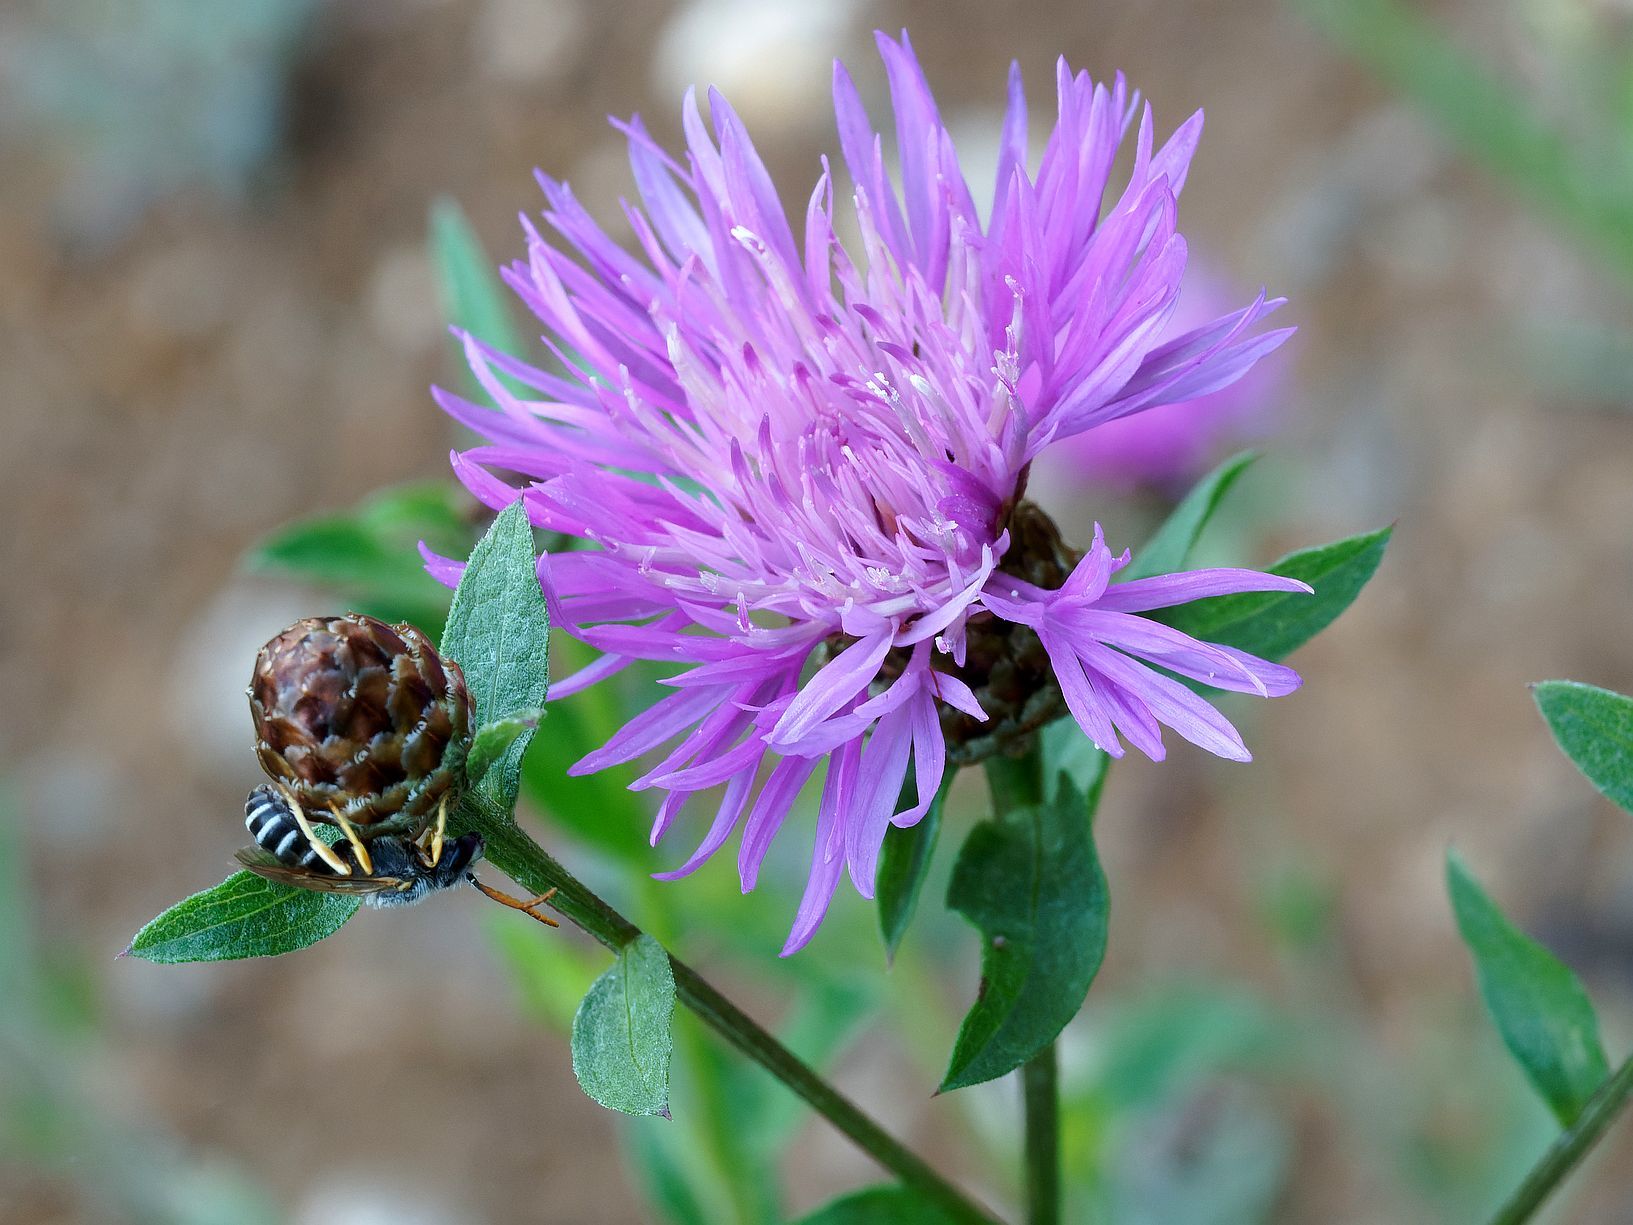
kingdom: Plantae
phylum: Tracheophyta
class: Magnoliopsida
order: Asterales
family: Asteraceae
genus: Centaurea
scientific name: Centaurea jacea
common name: Brown knapweed
